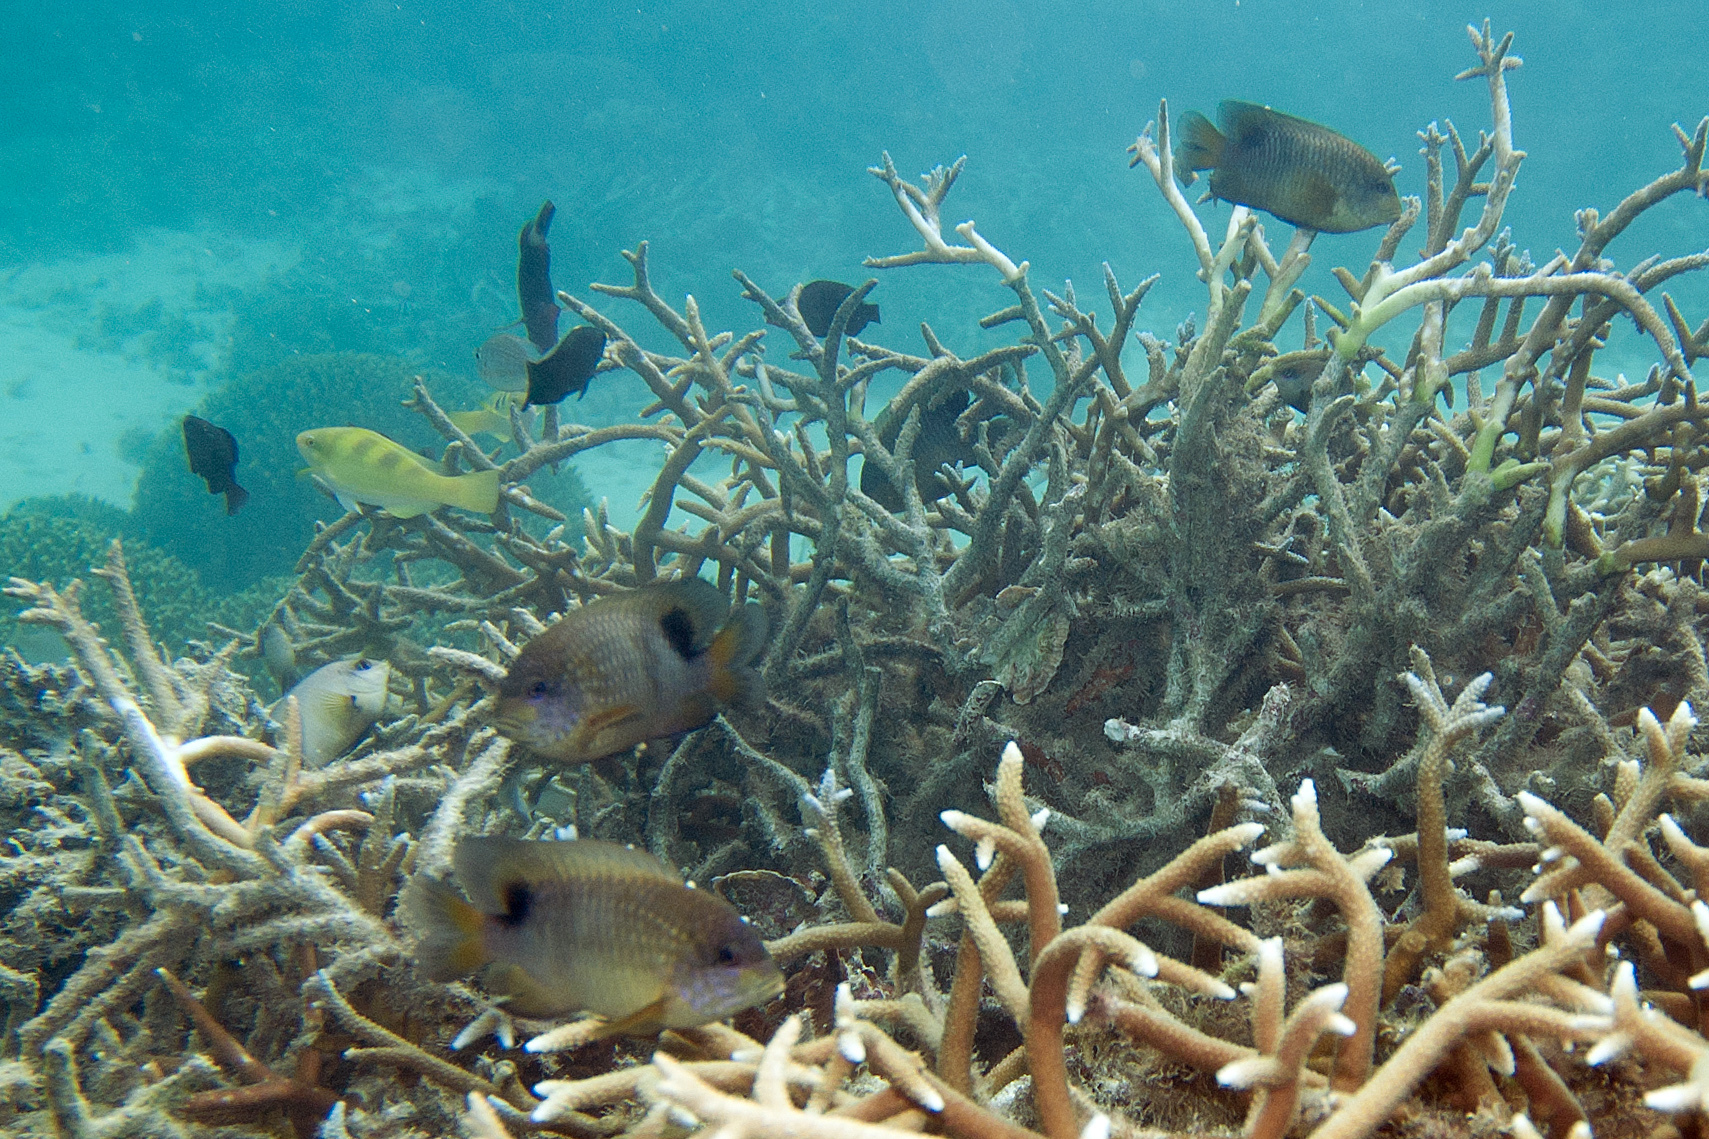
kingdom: Animalia
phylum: Chordata
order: Perciformes
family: Pomacentridae
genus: Stegastes
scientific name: Stegastes punctatus
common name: Blunt snout gregory
